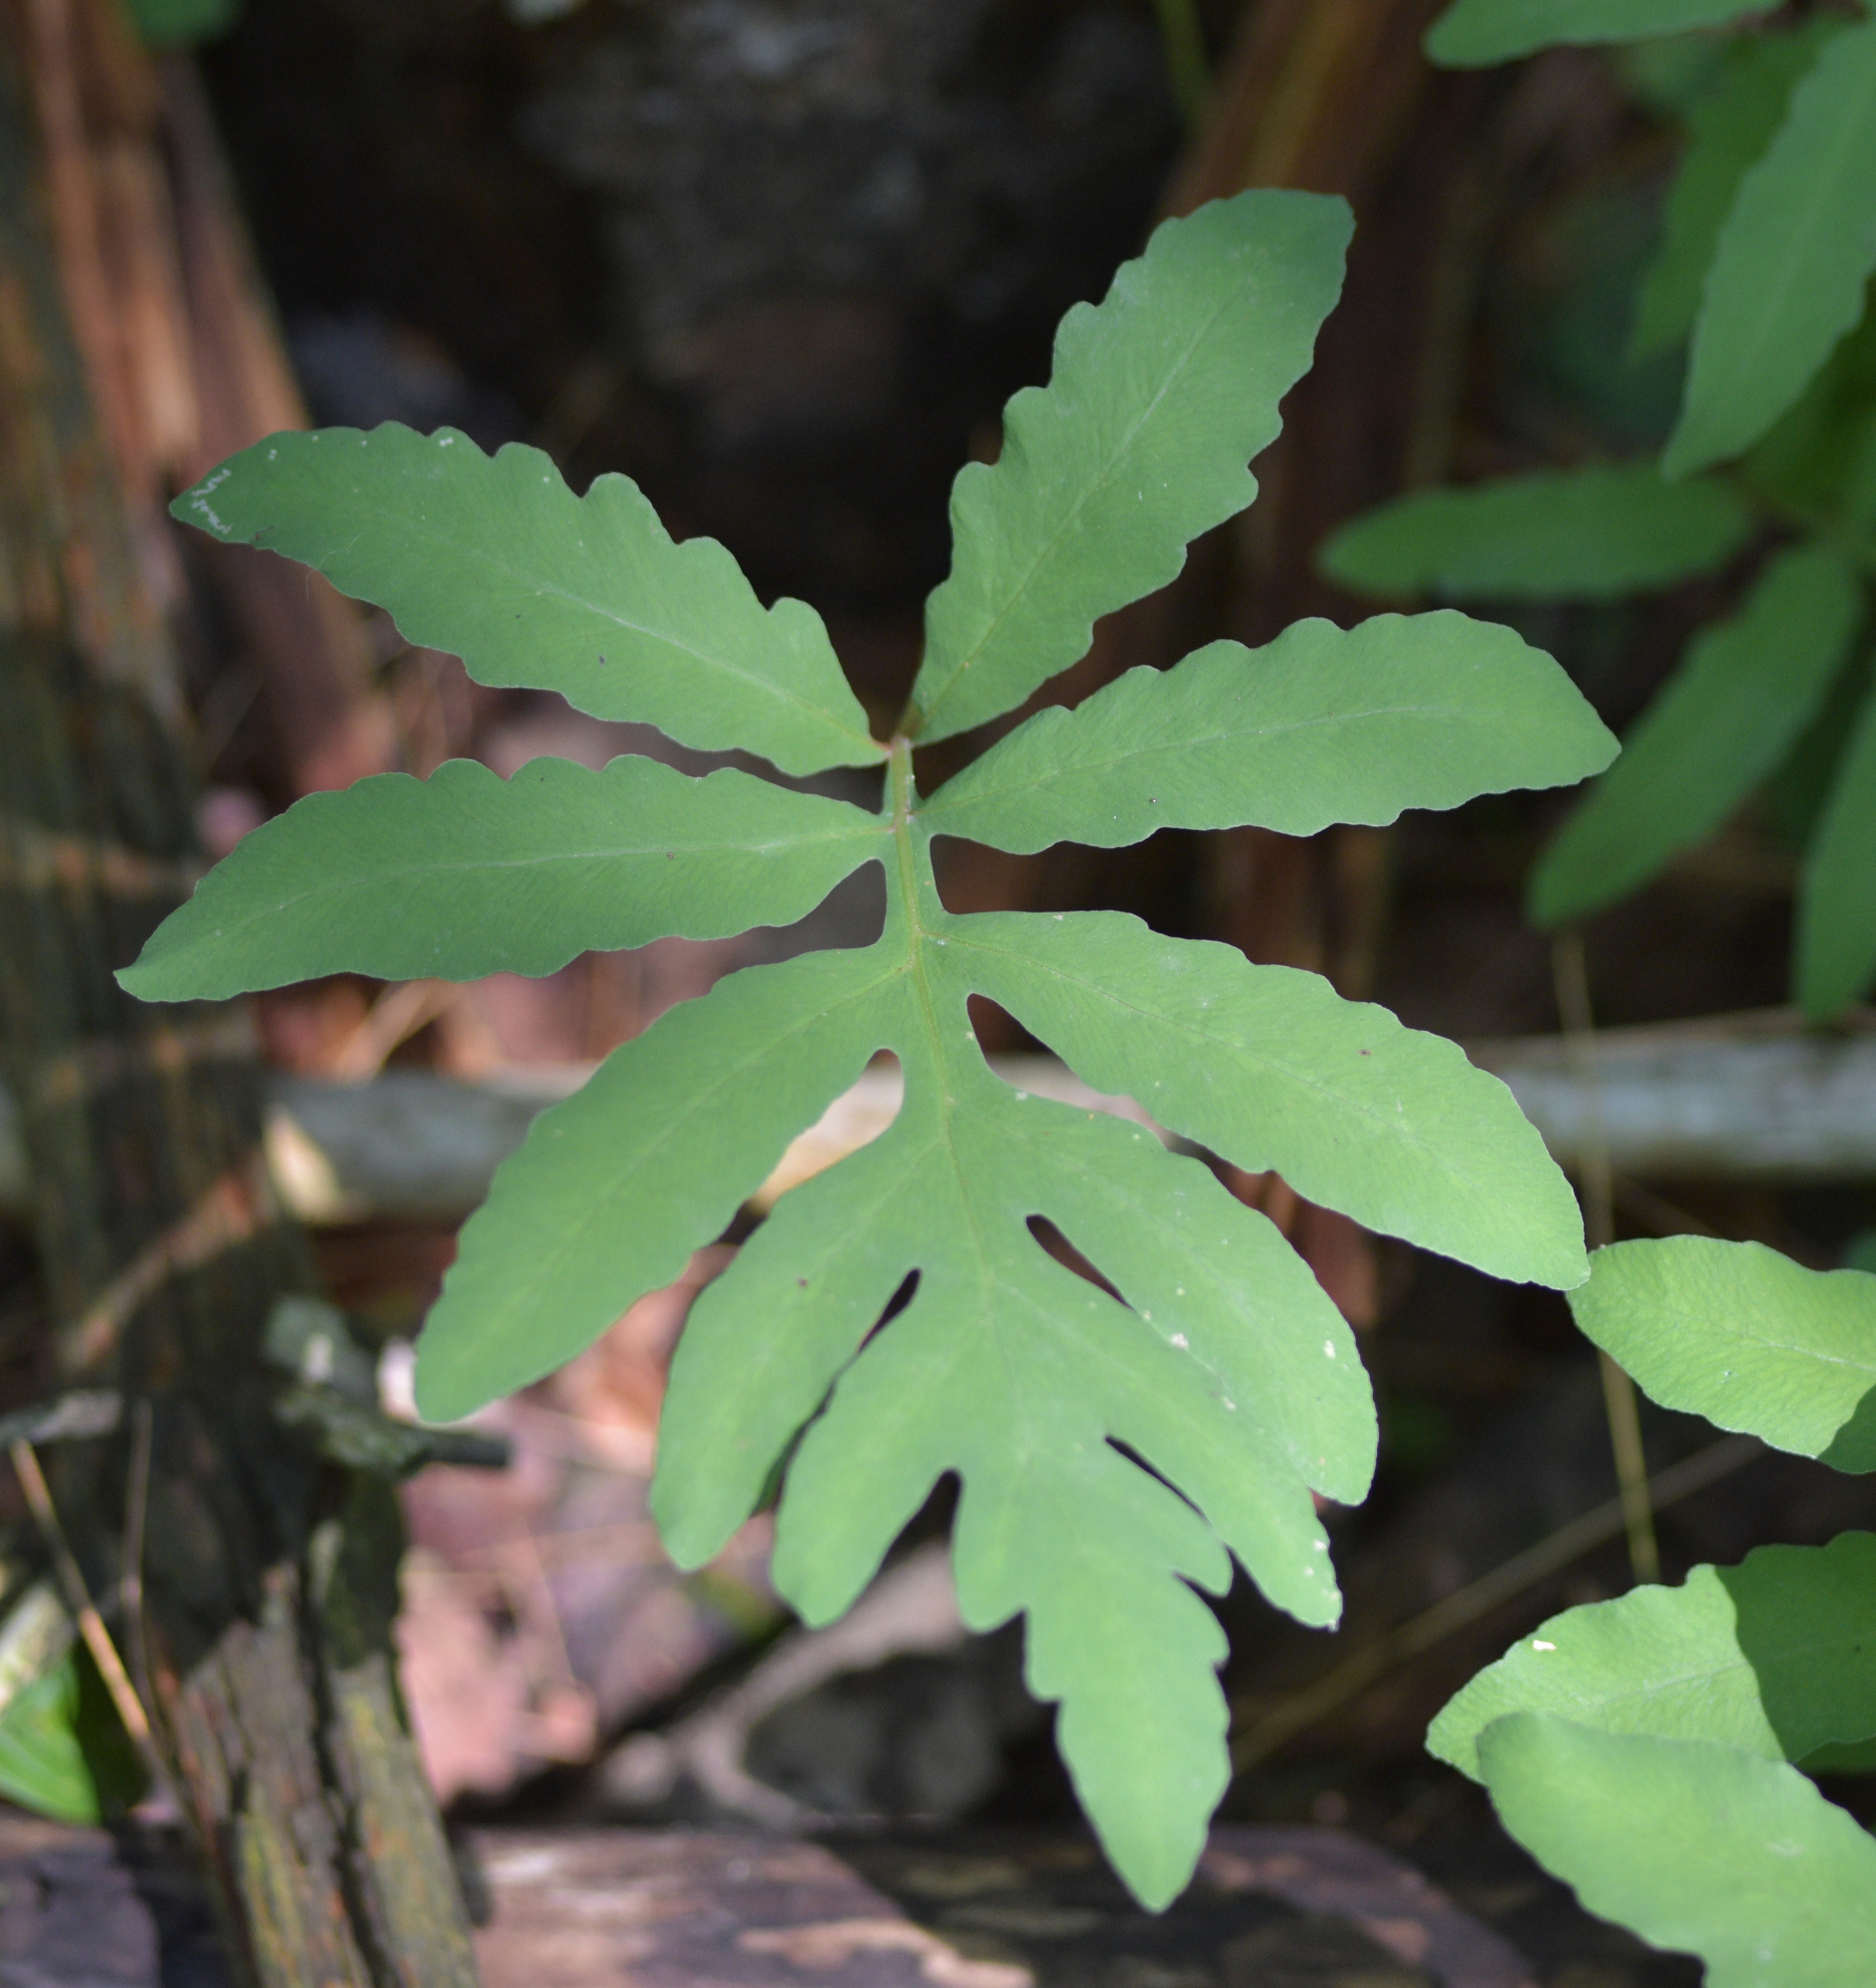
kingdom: Plantae
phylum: Tracheophyta
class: Polypodiopsida
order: Polypodiales
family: Onocleaceae
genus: Onoclea
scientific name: Onoclea sensibilis
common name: Sensitive fern
